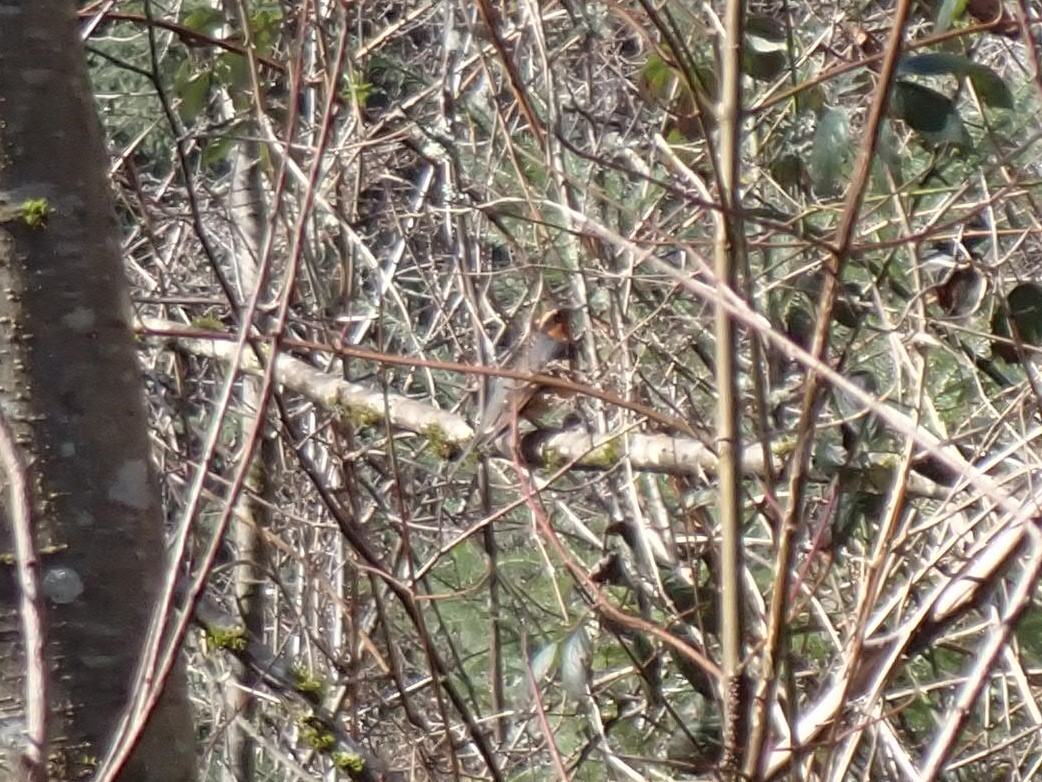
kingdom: Animalia
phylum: Chordata
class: Aves
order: Passeriformes
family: Turdidae
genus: Ixoreus
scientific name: Ixoreus naevius
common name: Varied thrush
